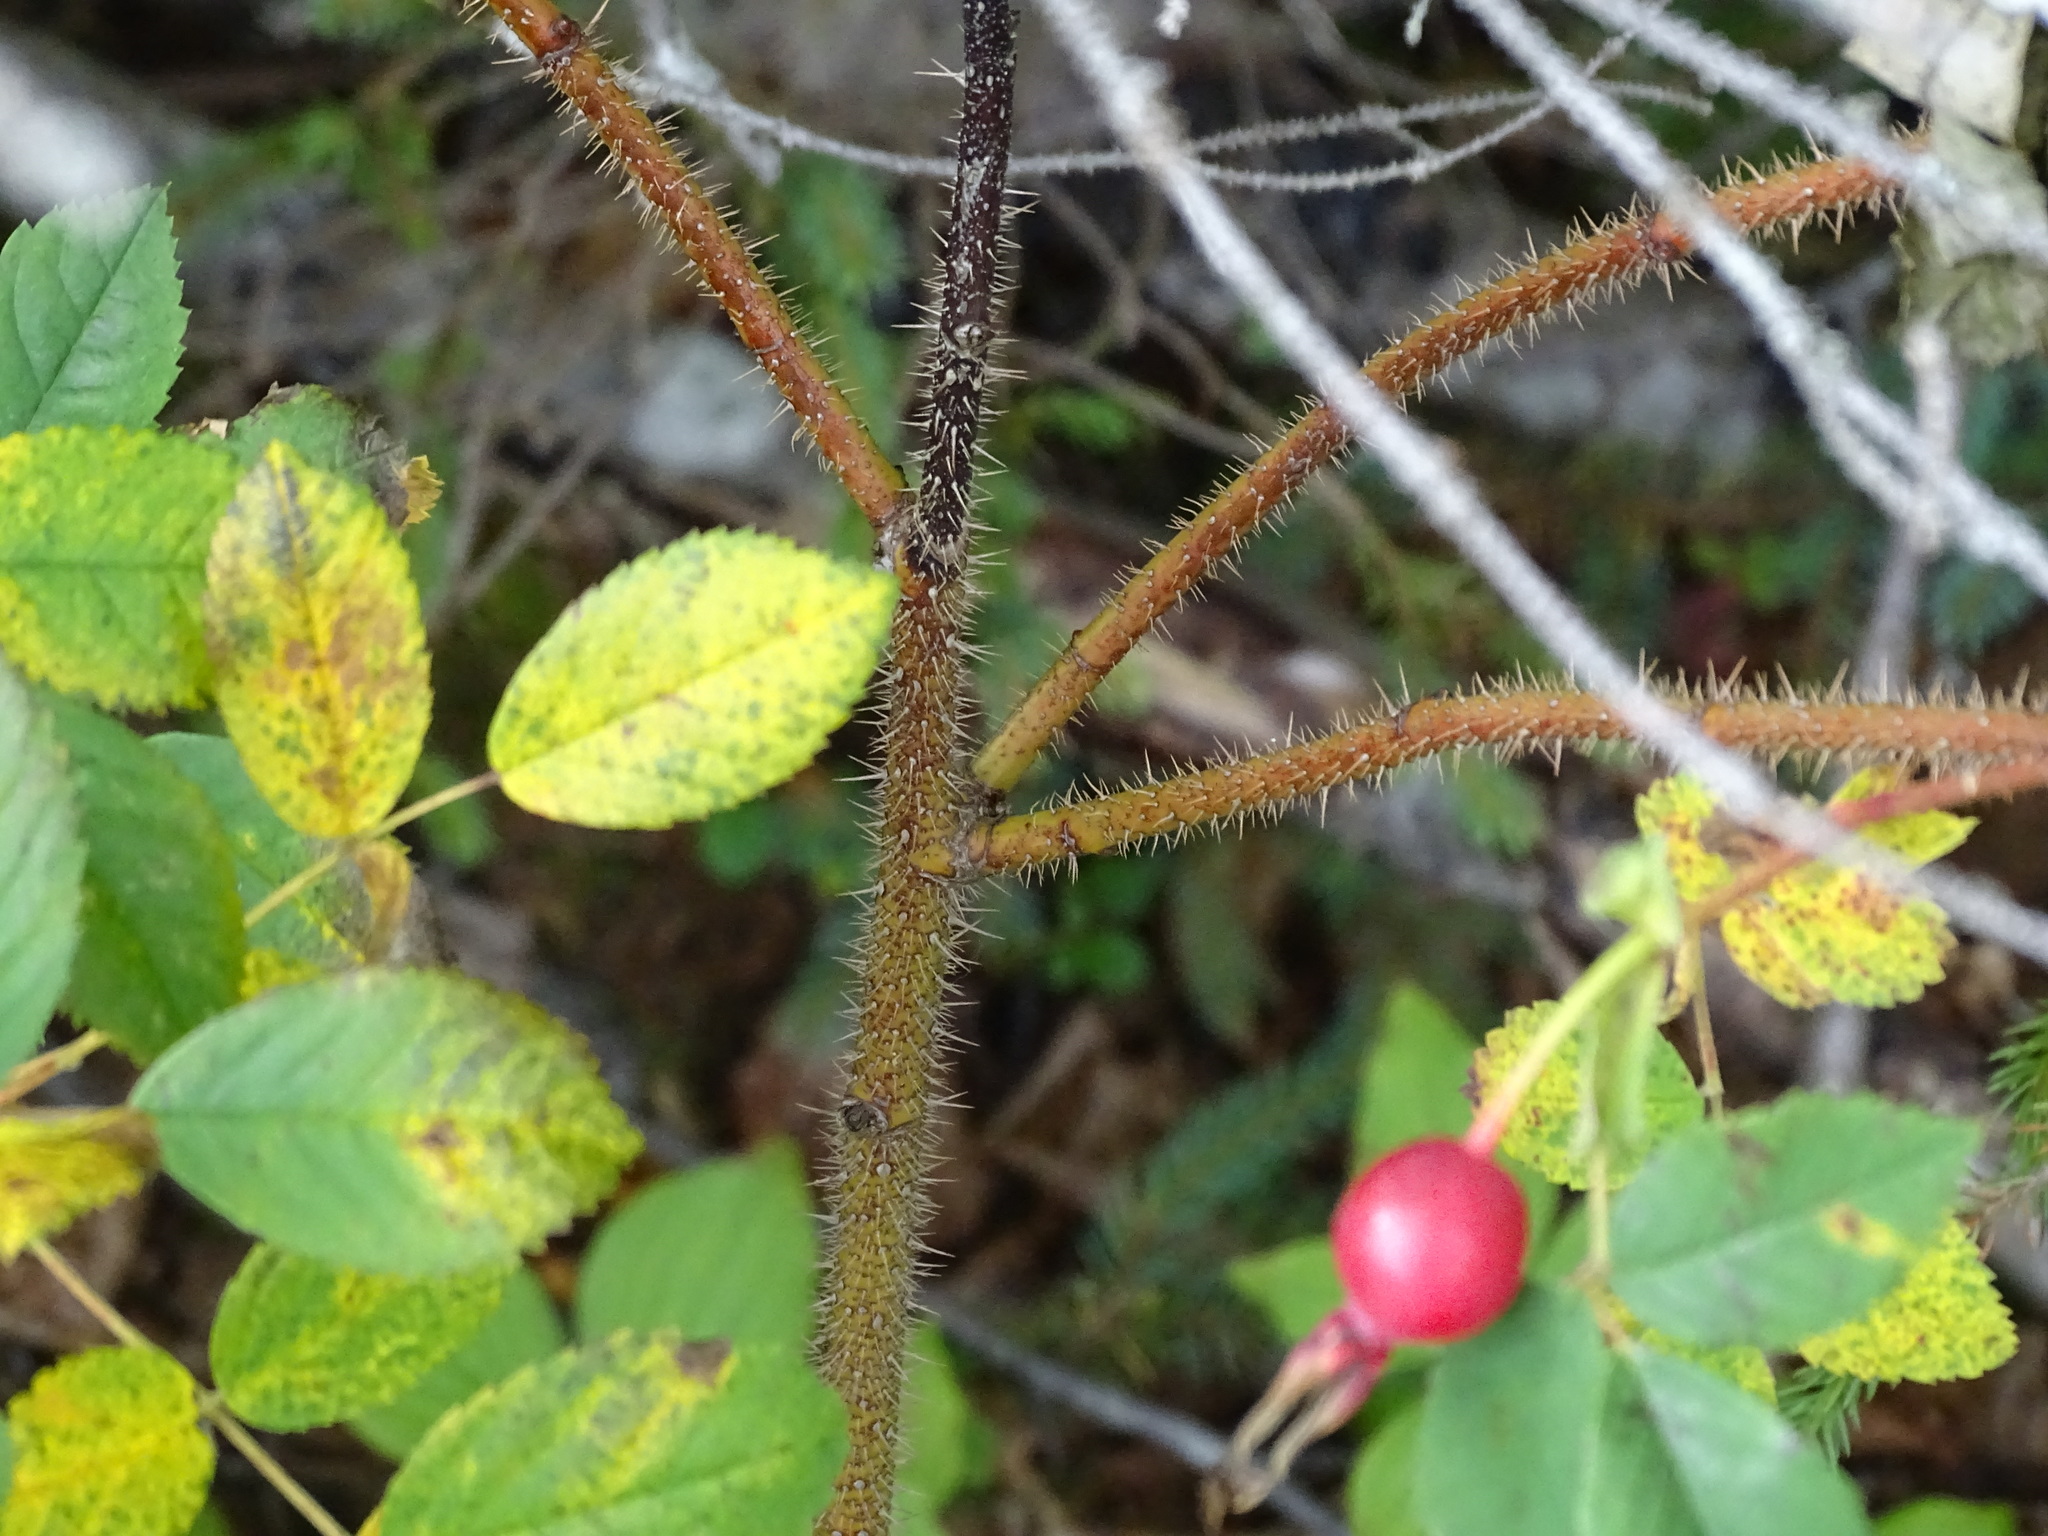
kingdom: Plantae
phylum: Tracheophyta
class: Magnoliopsida
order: Rosales
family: Rosaceae
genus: Rosa
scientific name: Rosa acicularis
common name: Prickly rose
